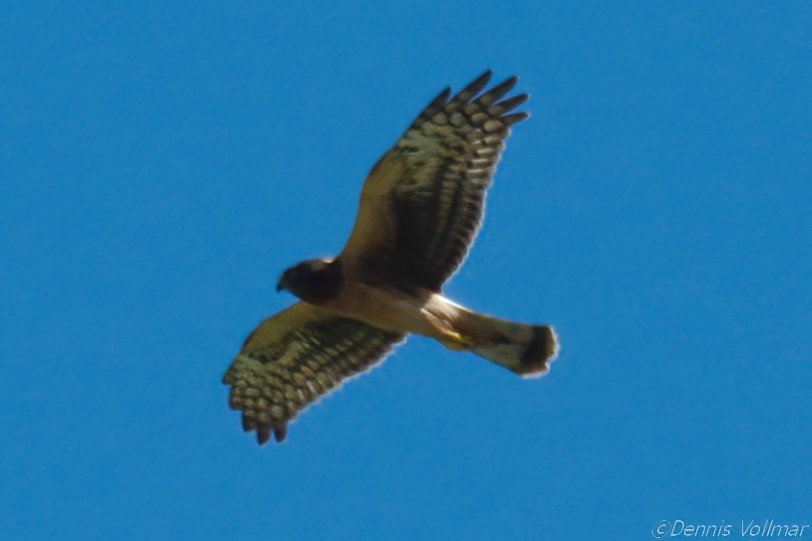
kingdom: Animalia
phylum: Chordata
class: Aves
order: Accipitriformes
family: Accipitridae
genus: Circus
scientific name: Circus cyaneus
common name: Hen harrier
